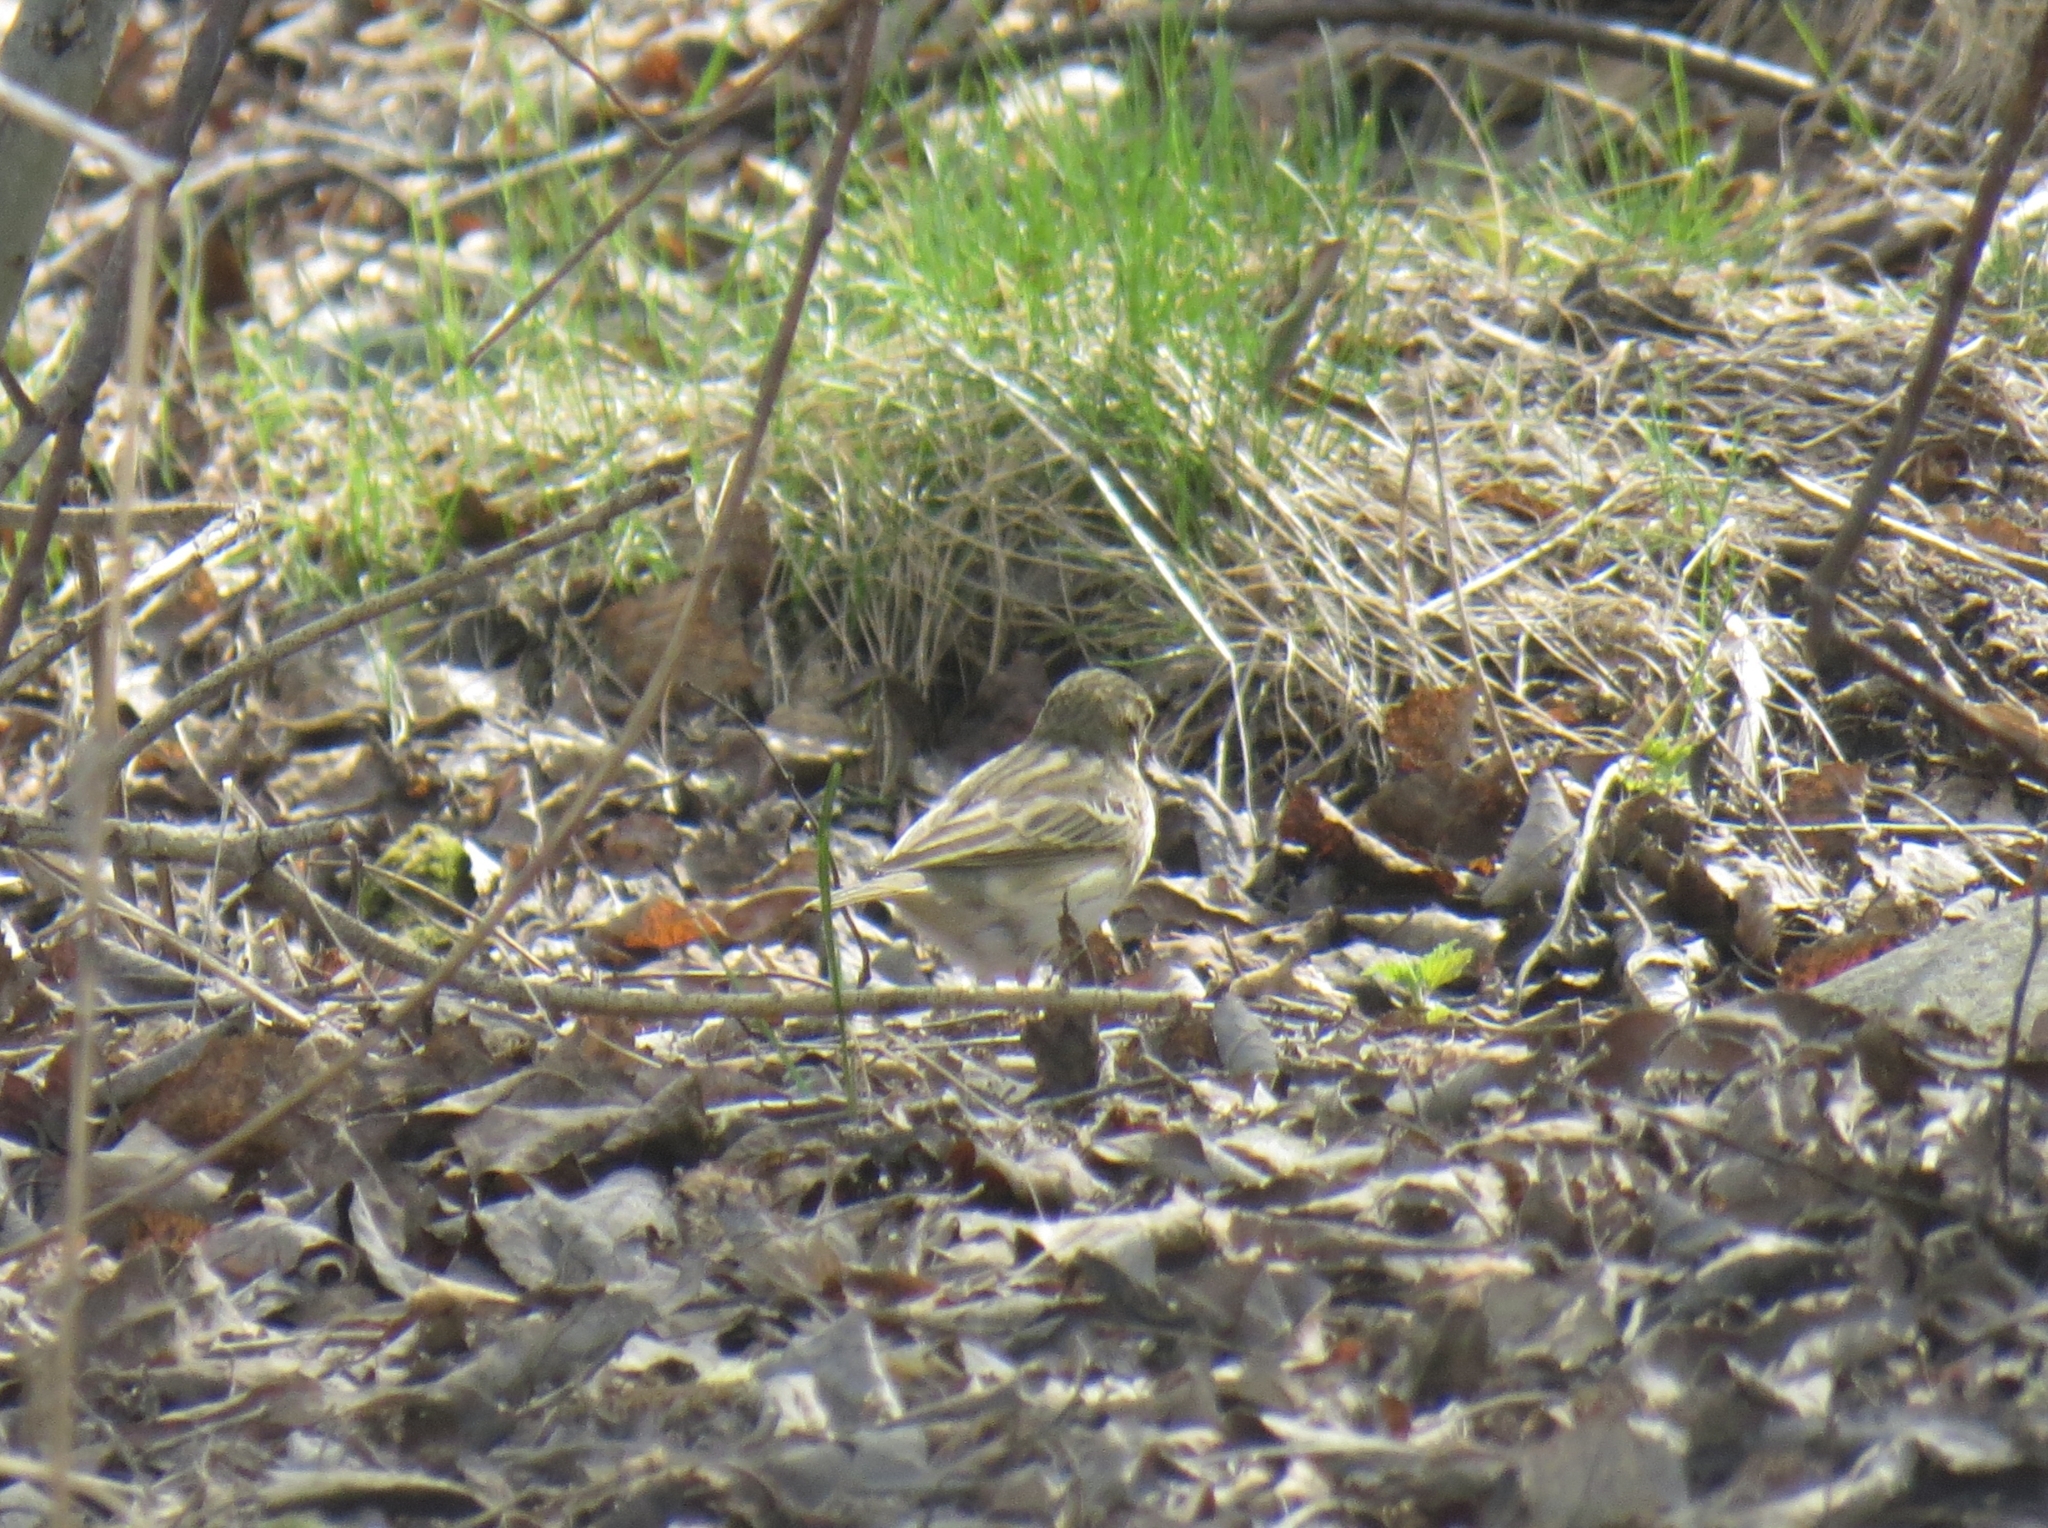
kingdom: Animalia
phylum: Chordata
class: Aves
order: Passeriformes
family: Motacillidae
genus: Anthus
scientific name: Anthus trivialis
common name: Tree pipit
